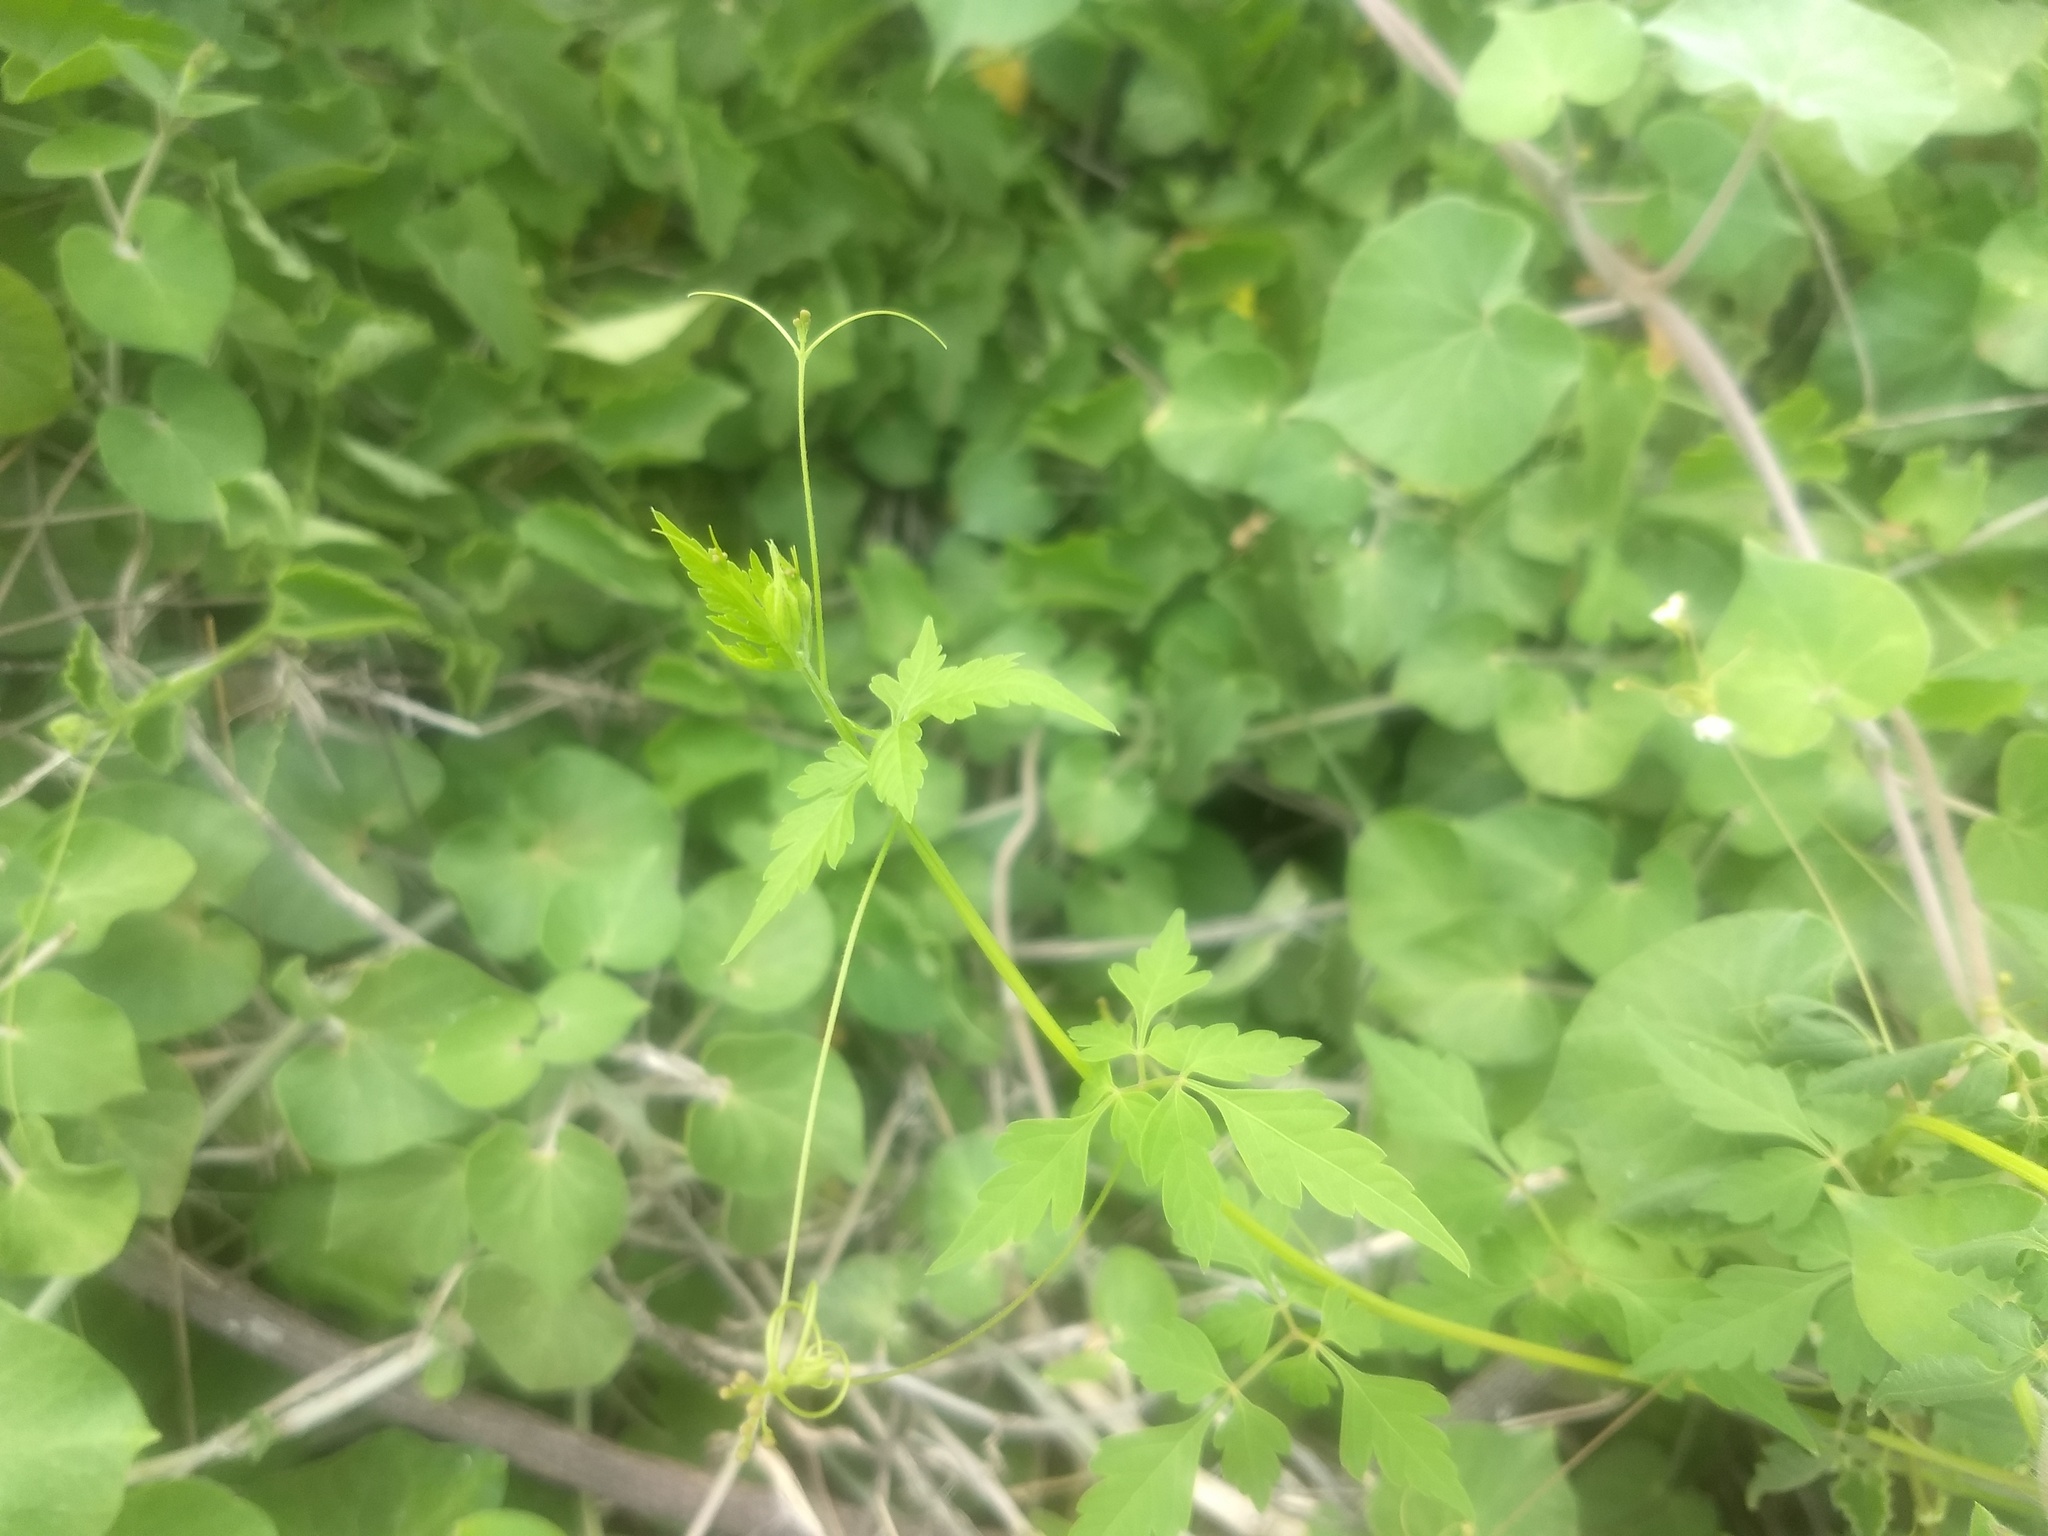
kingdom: Plantae
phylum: Tracheophyta
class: Magnoliopsida
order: Sapindales
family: Sapindaceae
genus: Cardiospermum
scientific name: Cardiospermum halicacabum
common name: Balloon vine
